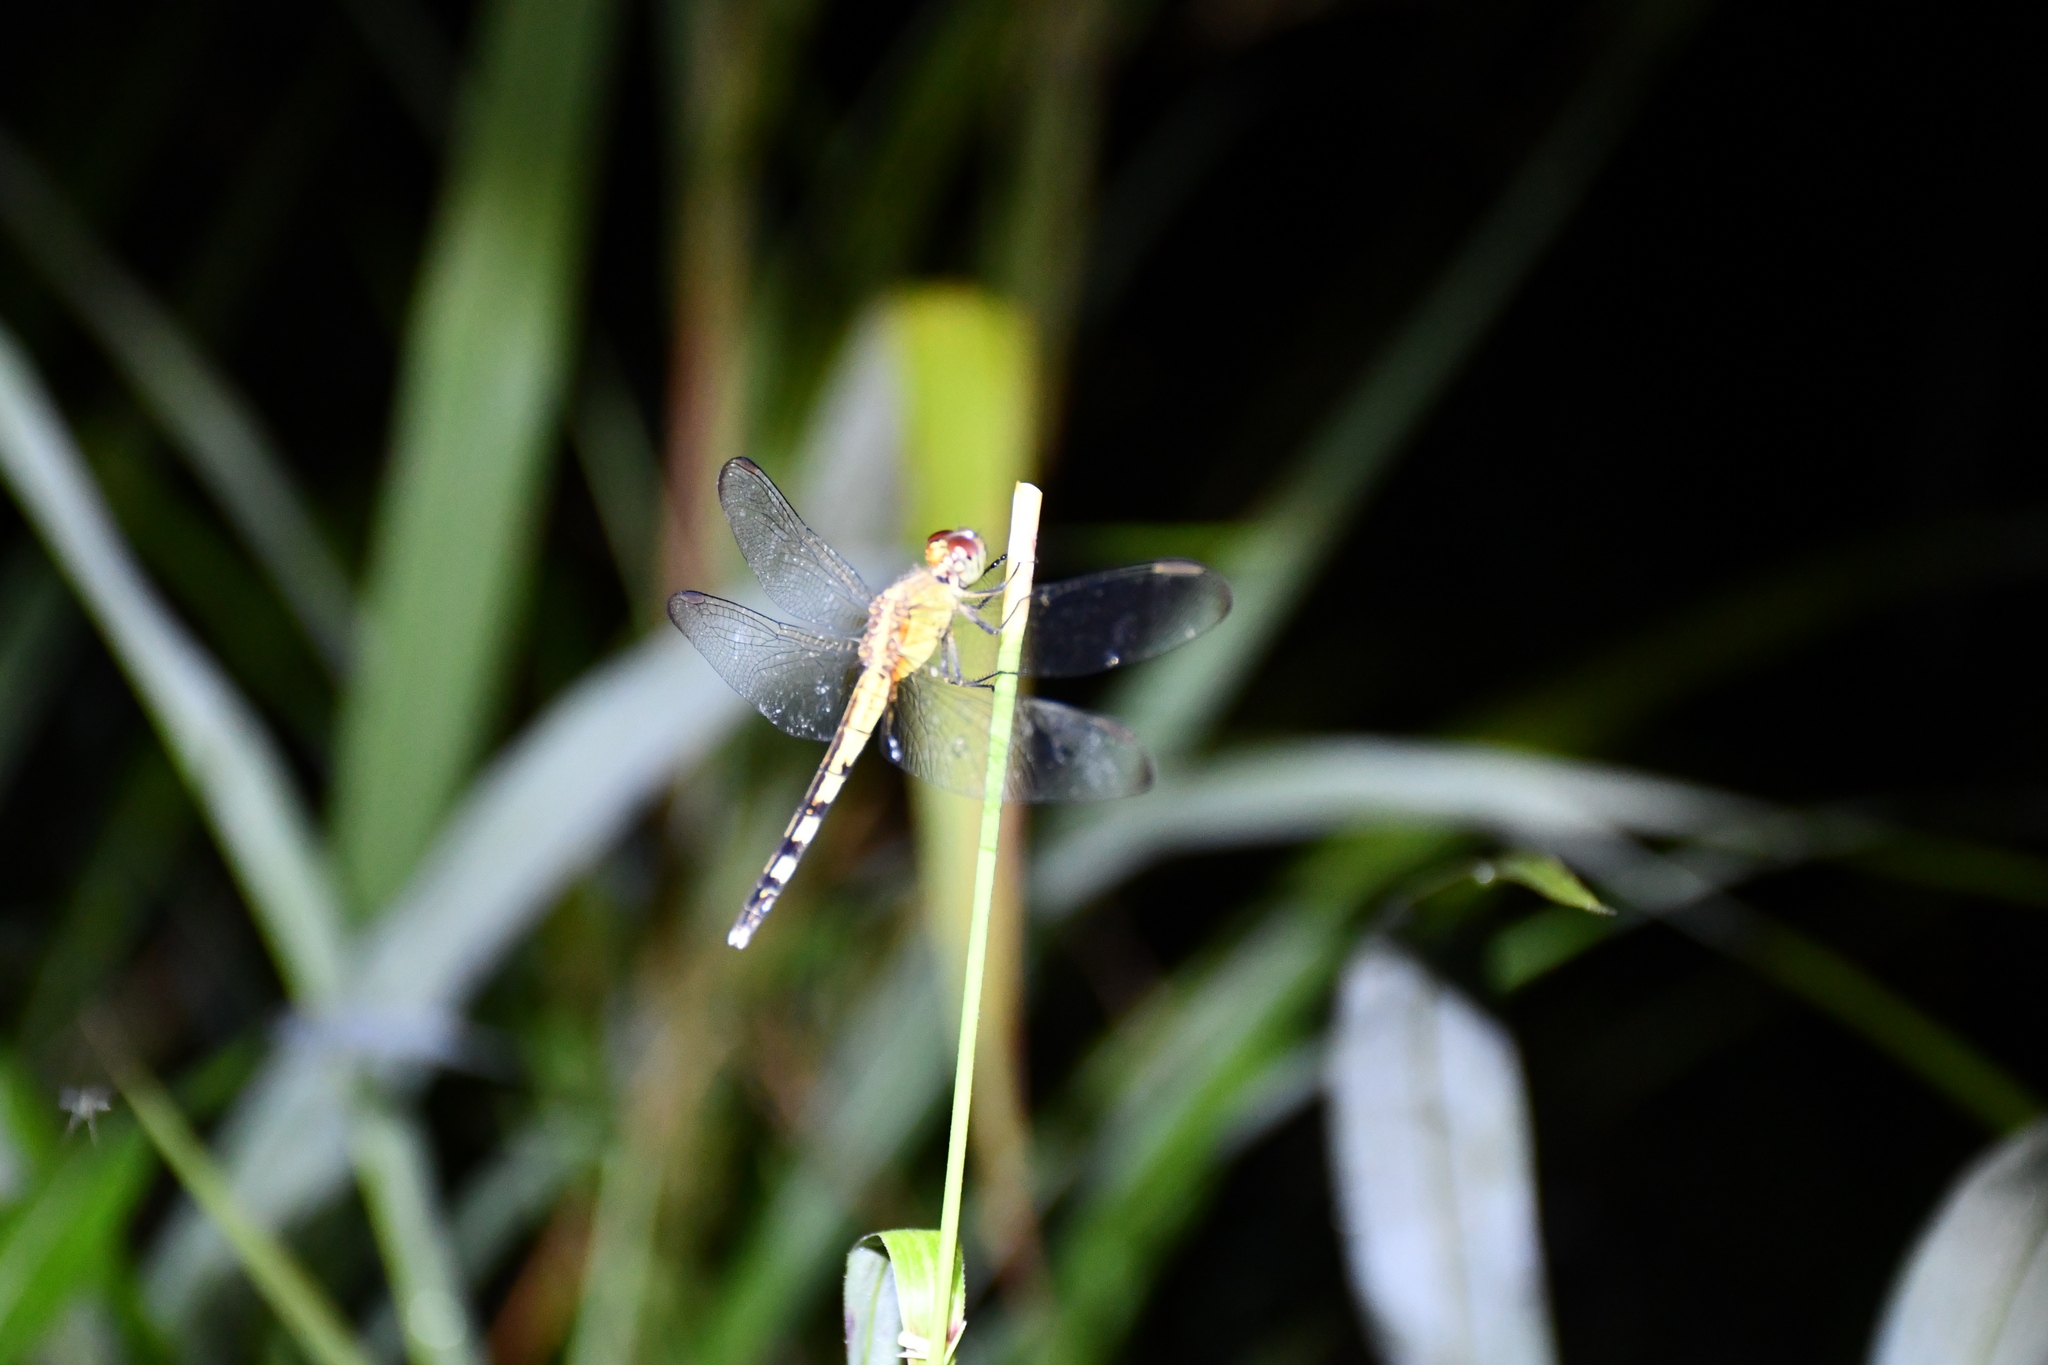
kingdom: Animalia
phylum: Arthropoda
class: Insecta
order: Odonata
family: Libellulidae
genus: Erythrodiplax
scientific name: Erythrodiplax umbrata
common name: Band-winged dragonlet
